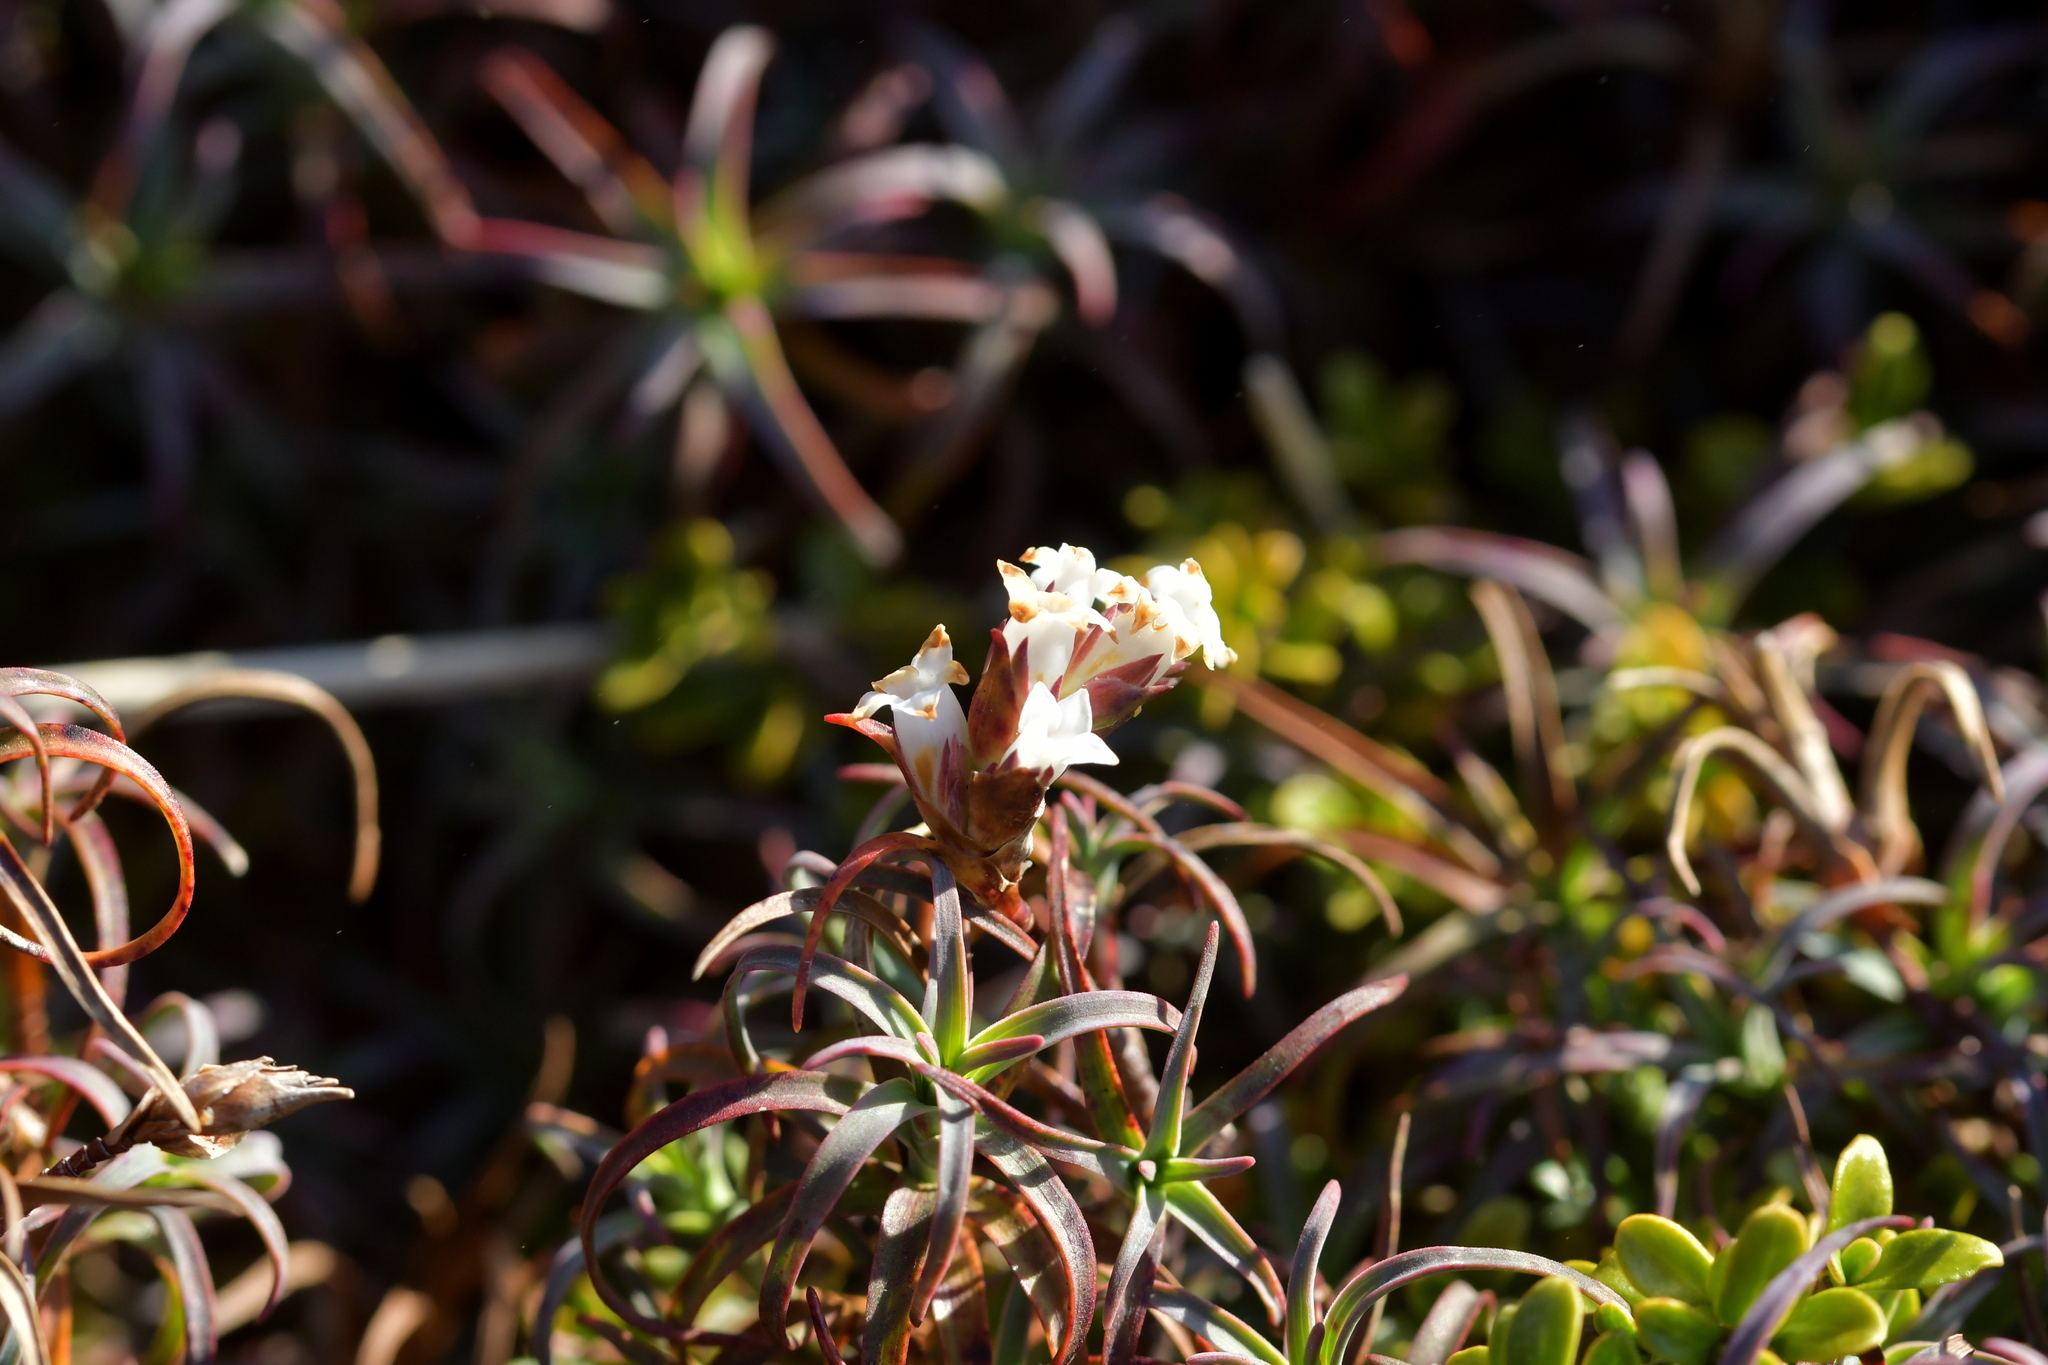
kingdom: Plantae
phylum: Tracheophyta
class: Magnoliopsida
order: Ericales
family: Ericaceae
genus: Dracophyllum
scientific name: Dracophyllum recurvum
